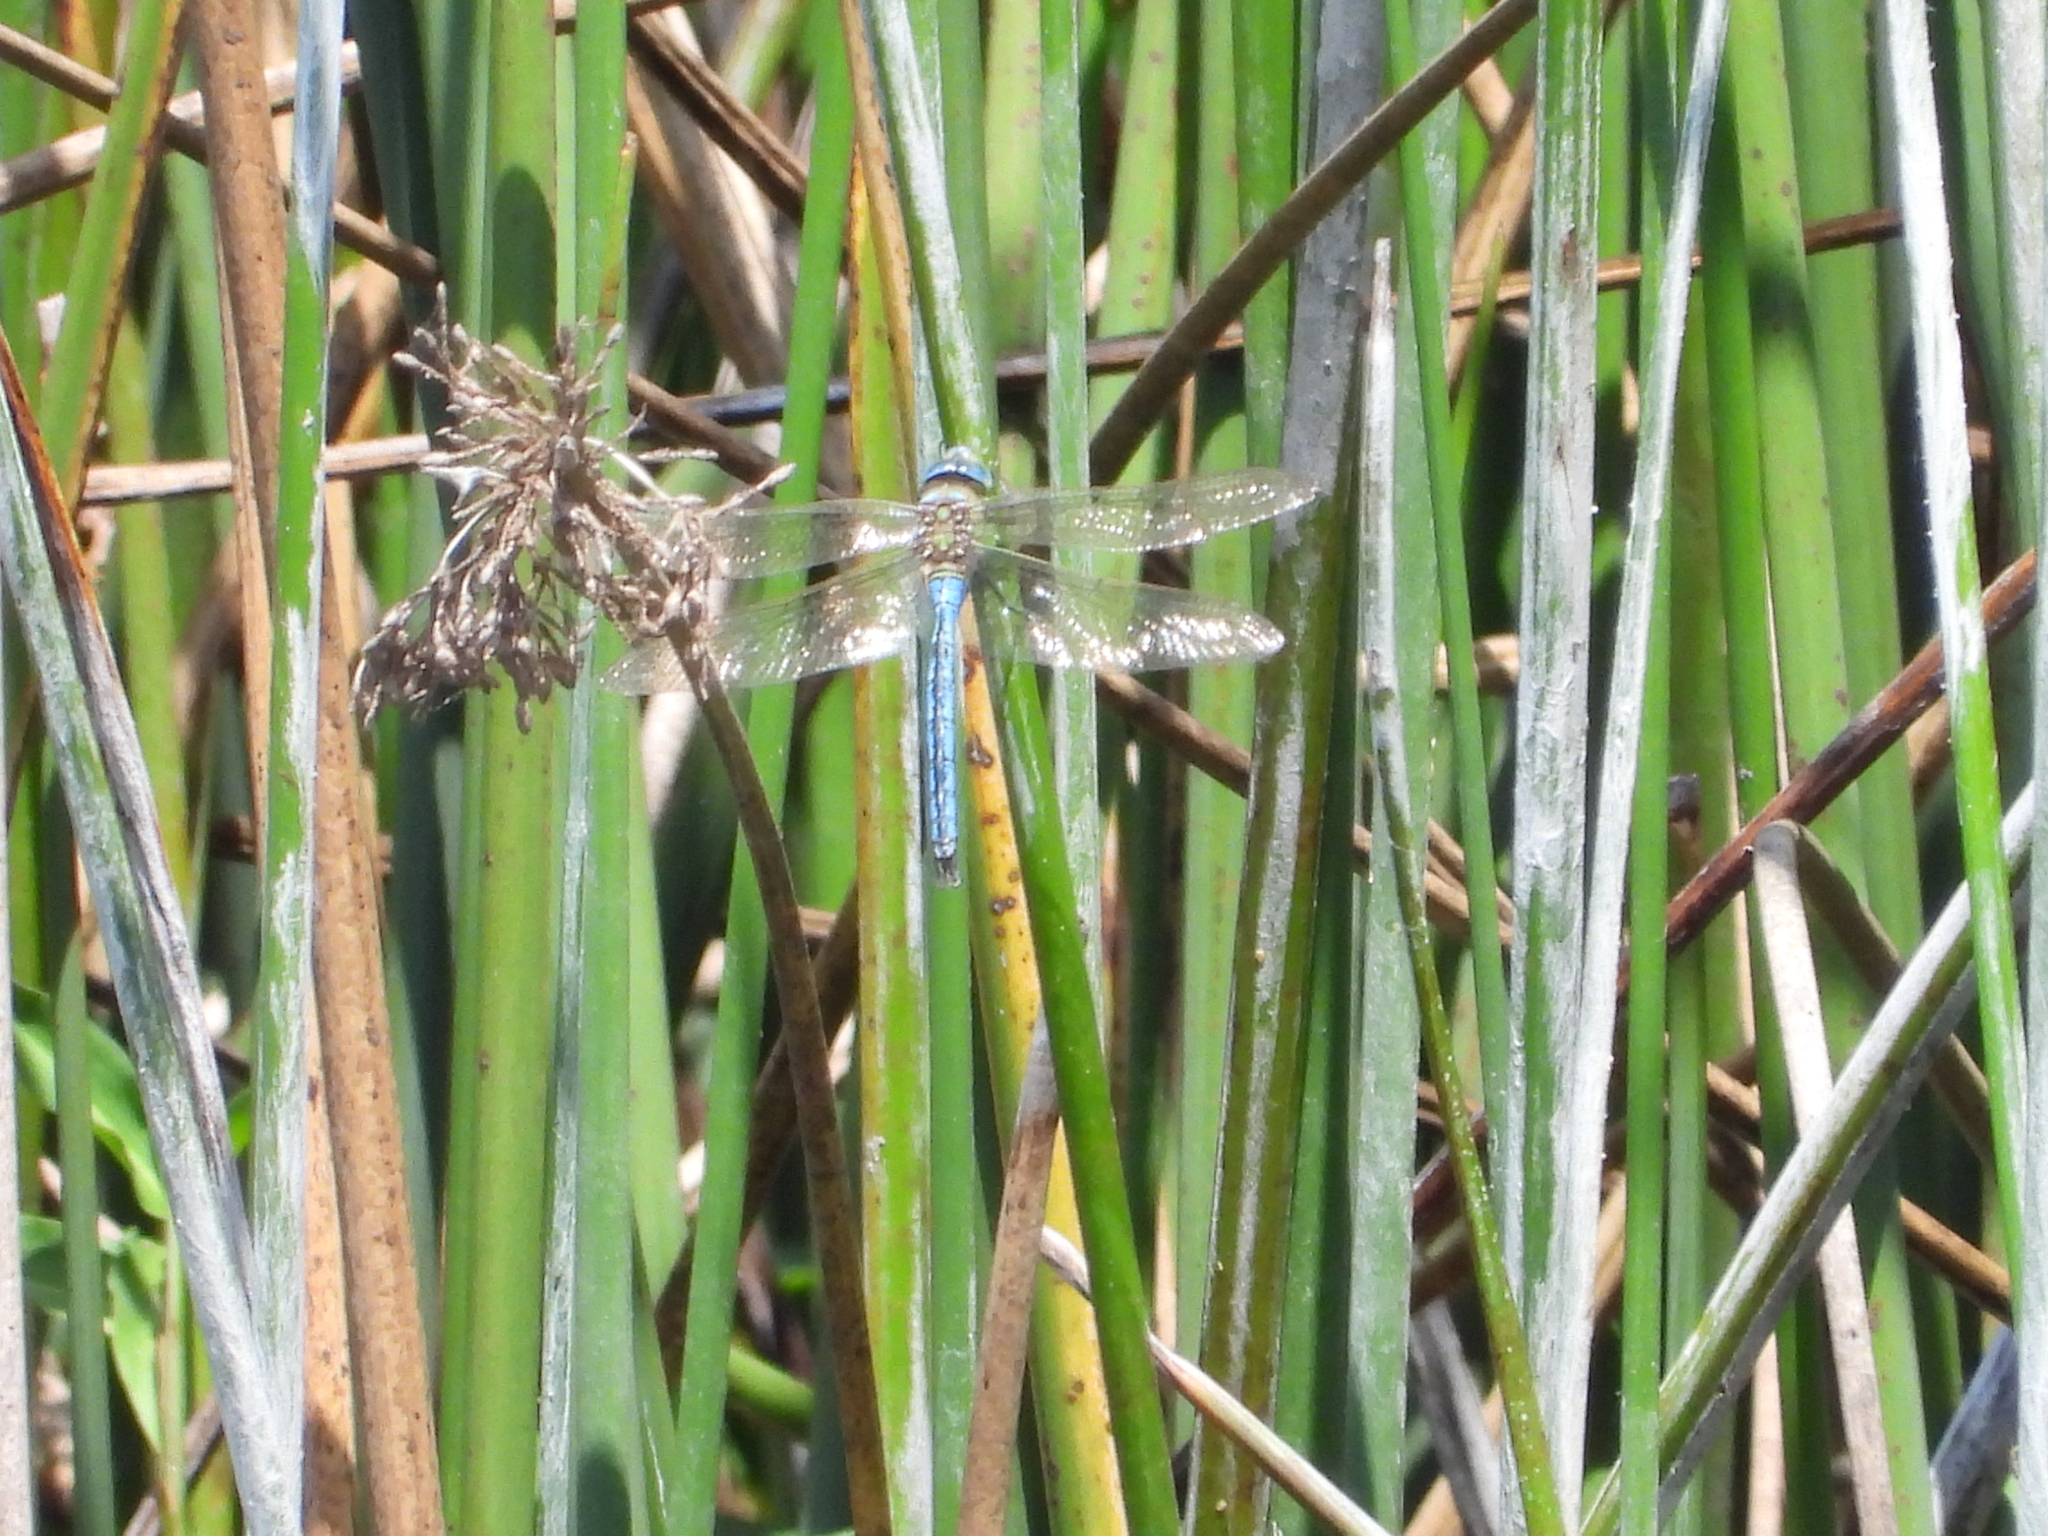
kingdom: Animalia
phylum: Arthropoda
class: Insecta
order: Odonata
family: Aeshnidae
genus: Anax
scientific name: Anax imperator
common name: Emperor dragonfly
